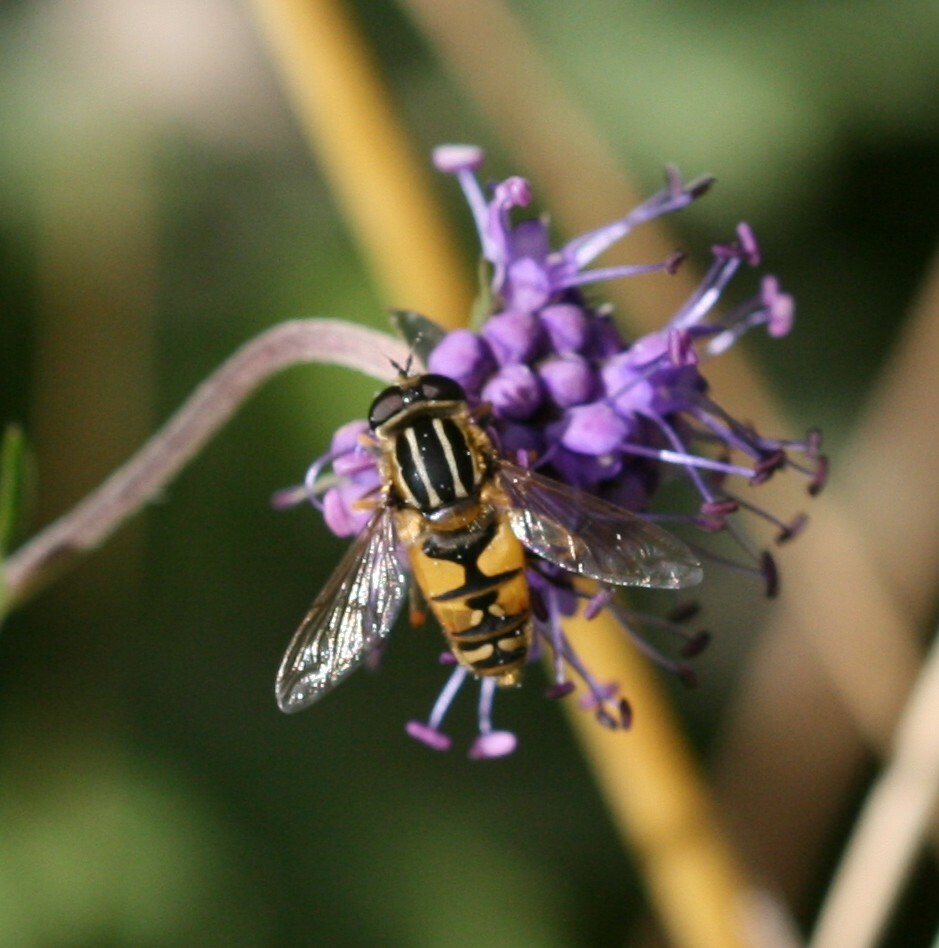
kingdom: Animalia
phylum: Arthropoda
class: Insecta
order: Diptera
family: Syrphidae
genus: Helophilus
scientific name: Helophilus pendulus
